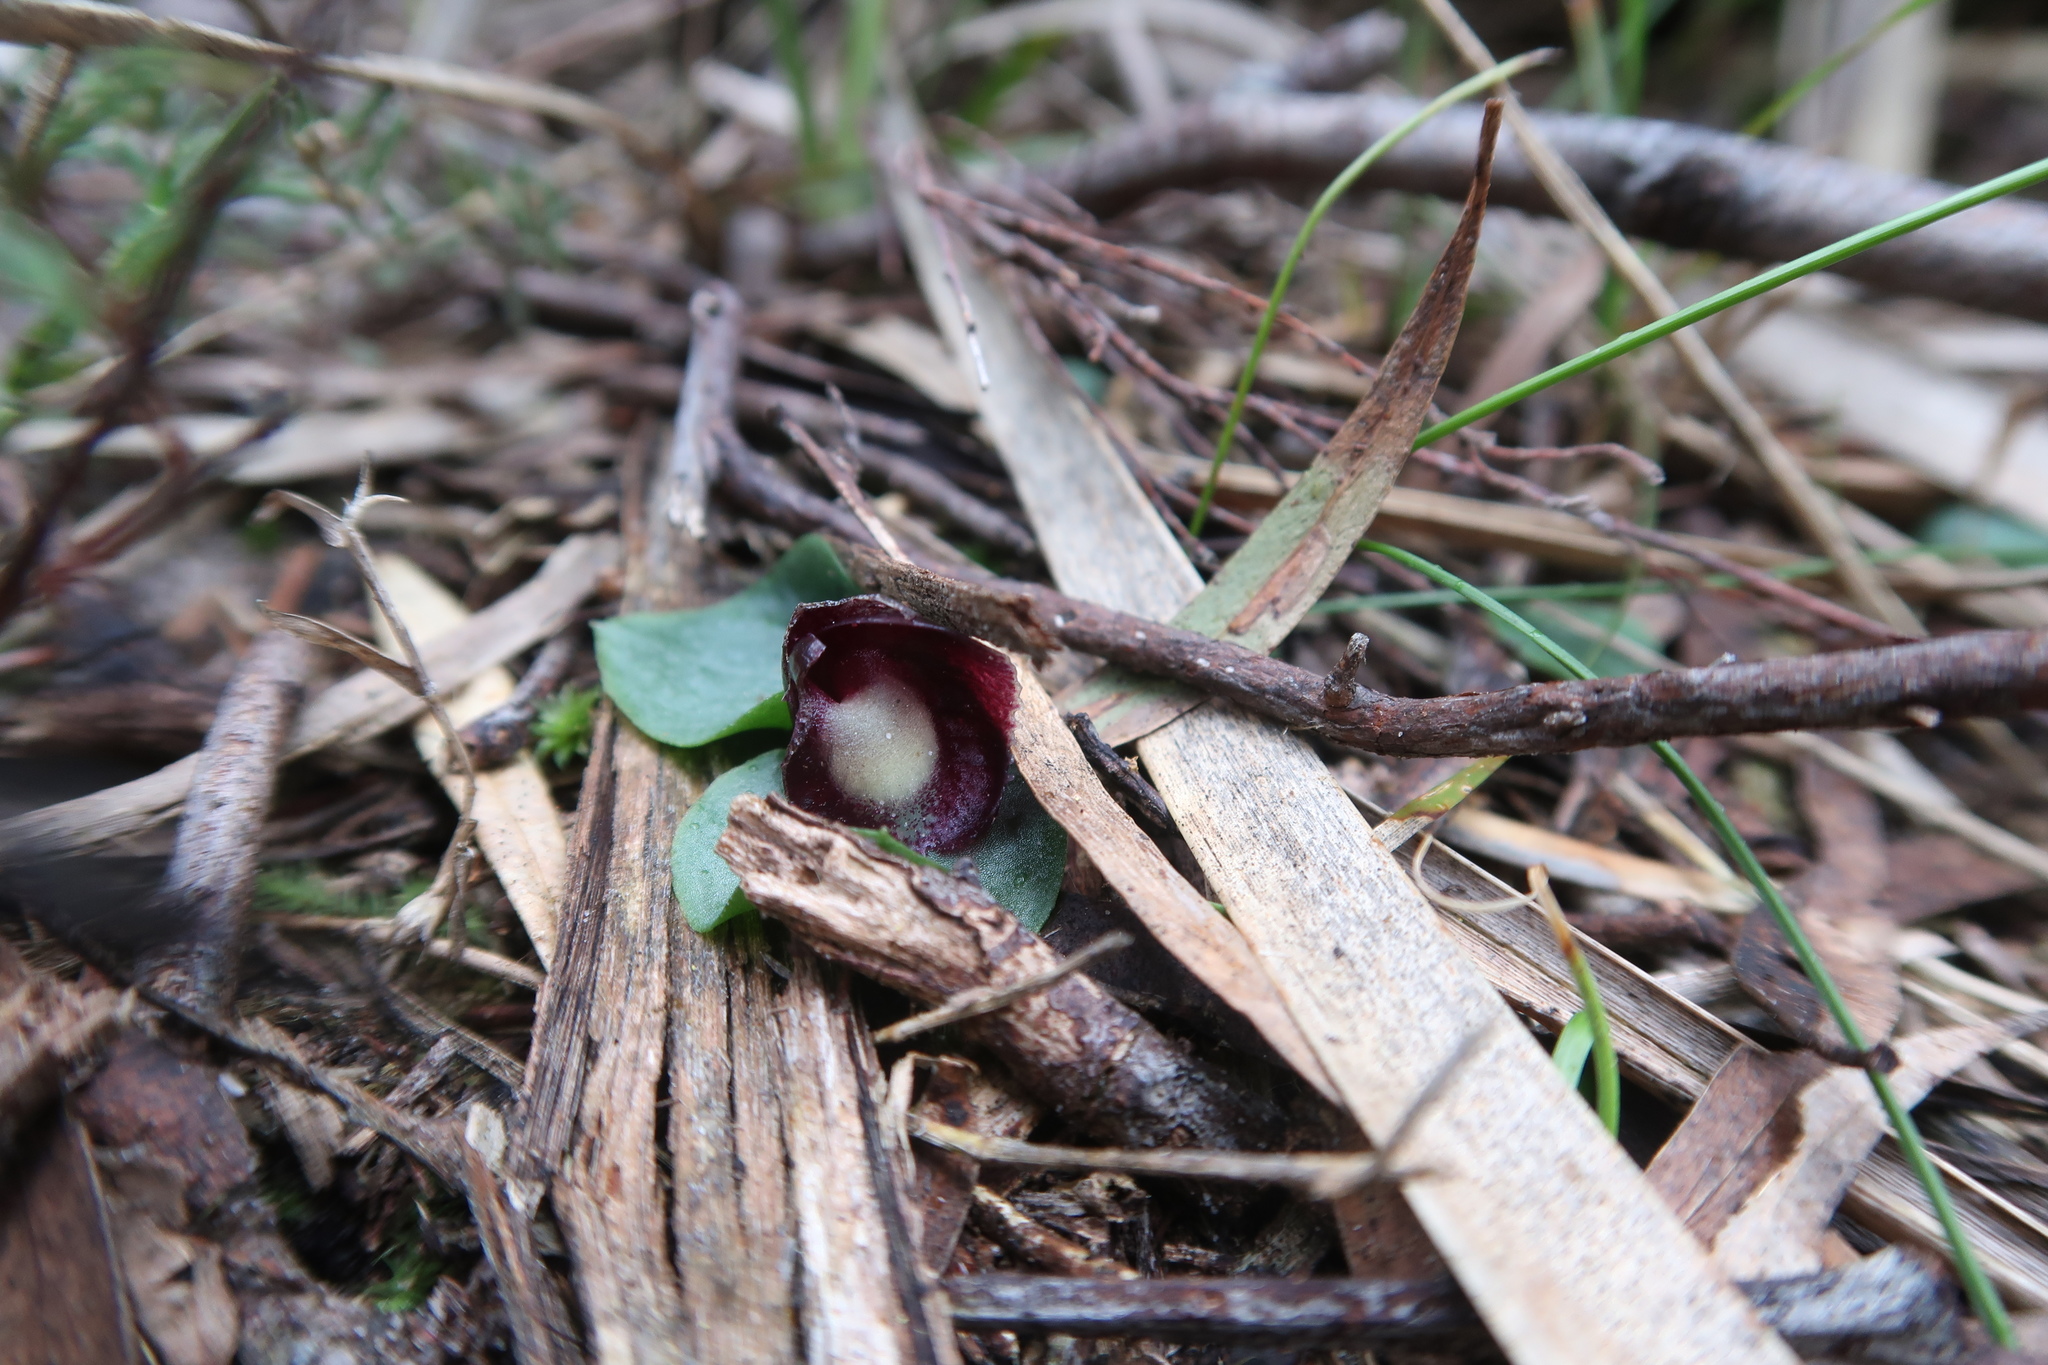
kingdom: Plantae
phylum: Tracheophyta
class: Liliopsida
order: Asparagales
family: Orchidaceae
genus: Corybas
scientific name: Corybas incurvus
